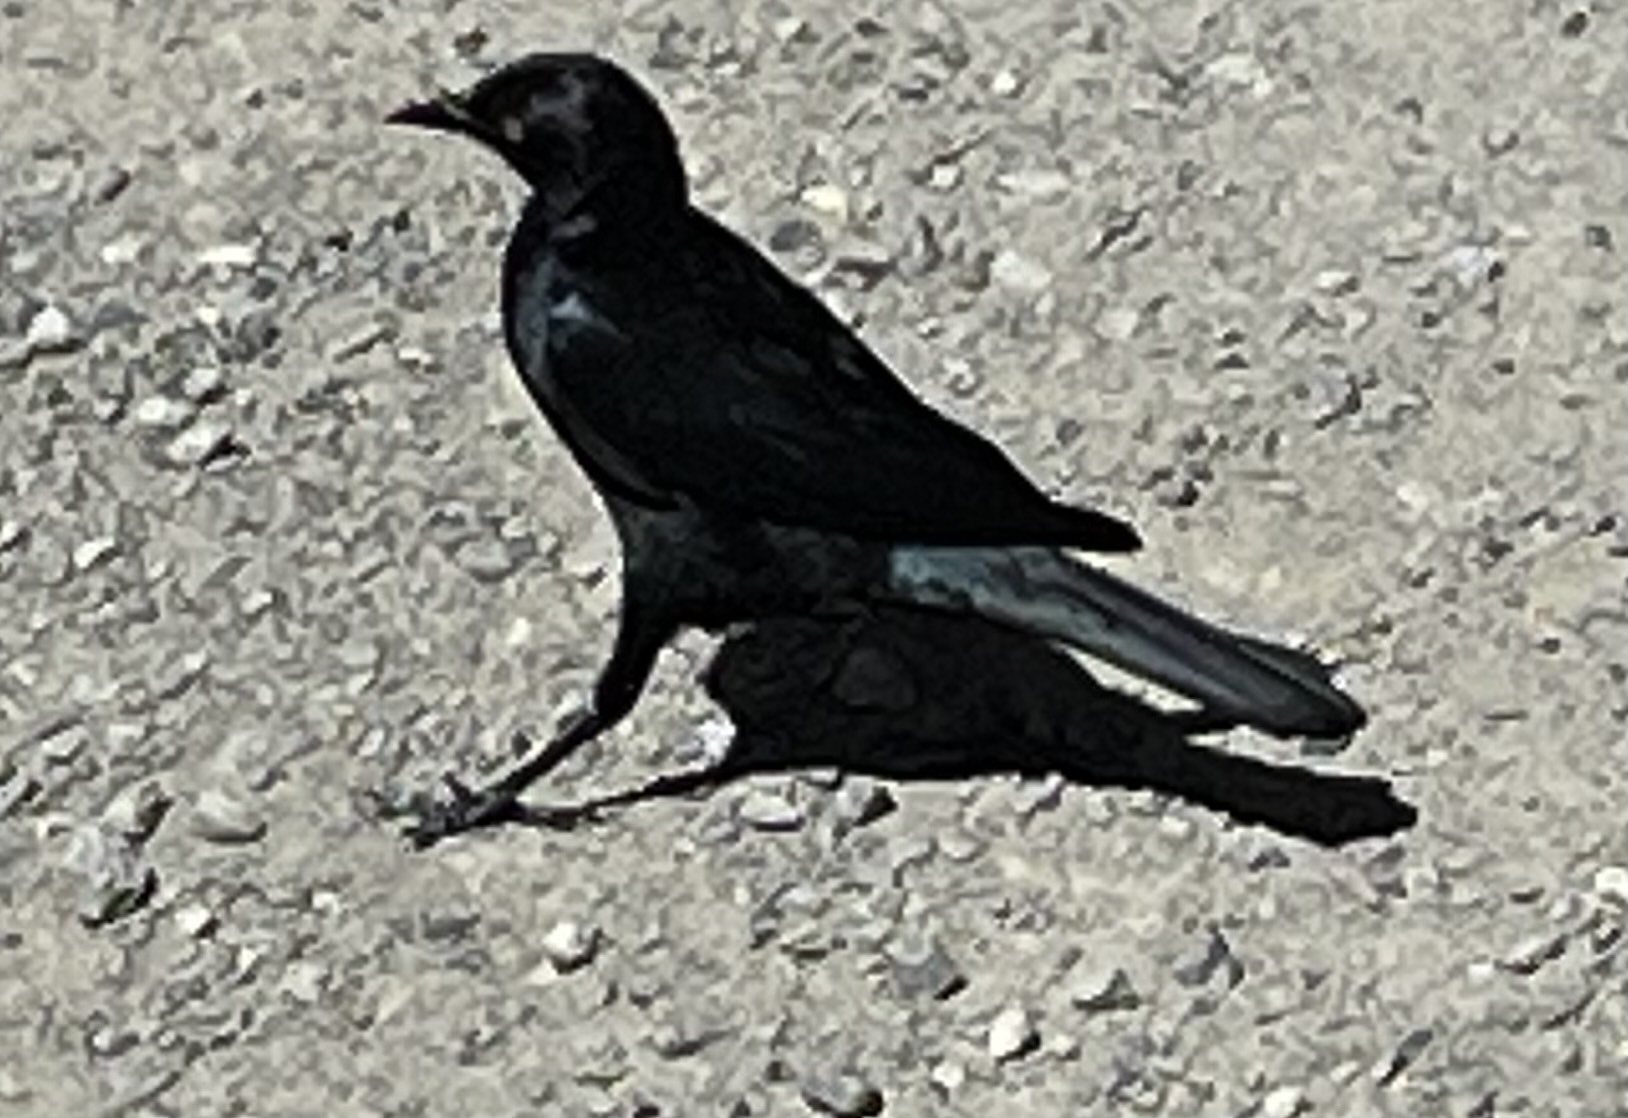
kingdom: Animalia
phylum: Chordata
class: Aves
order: Passeriformes
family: Icteridae
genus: Euphagus
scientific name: Euphagus cyanocephalus
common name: Brewer's blackbird
